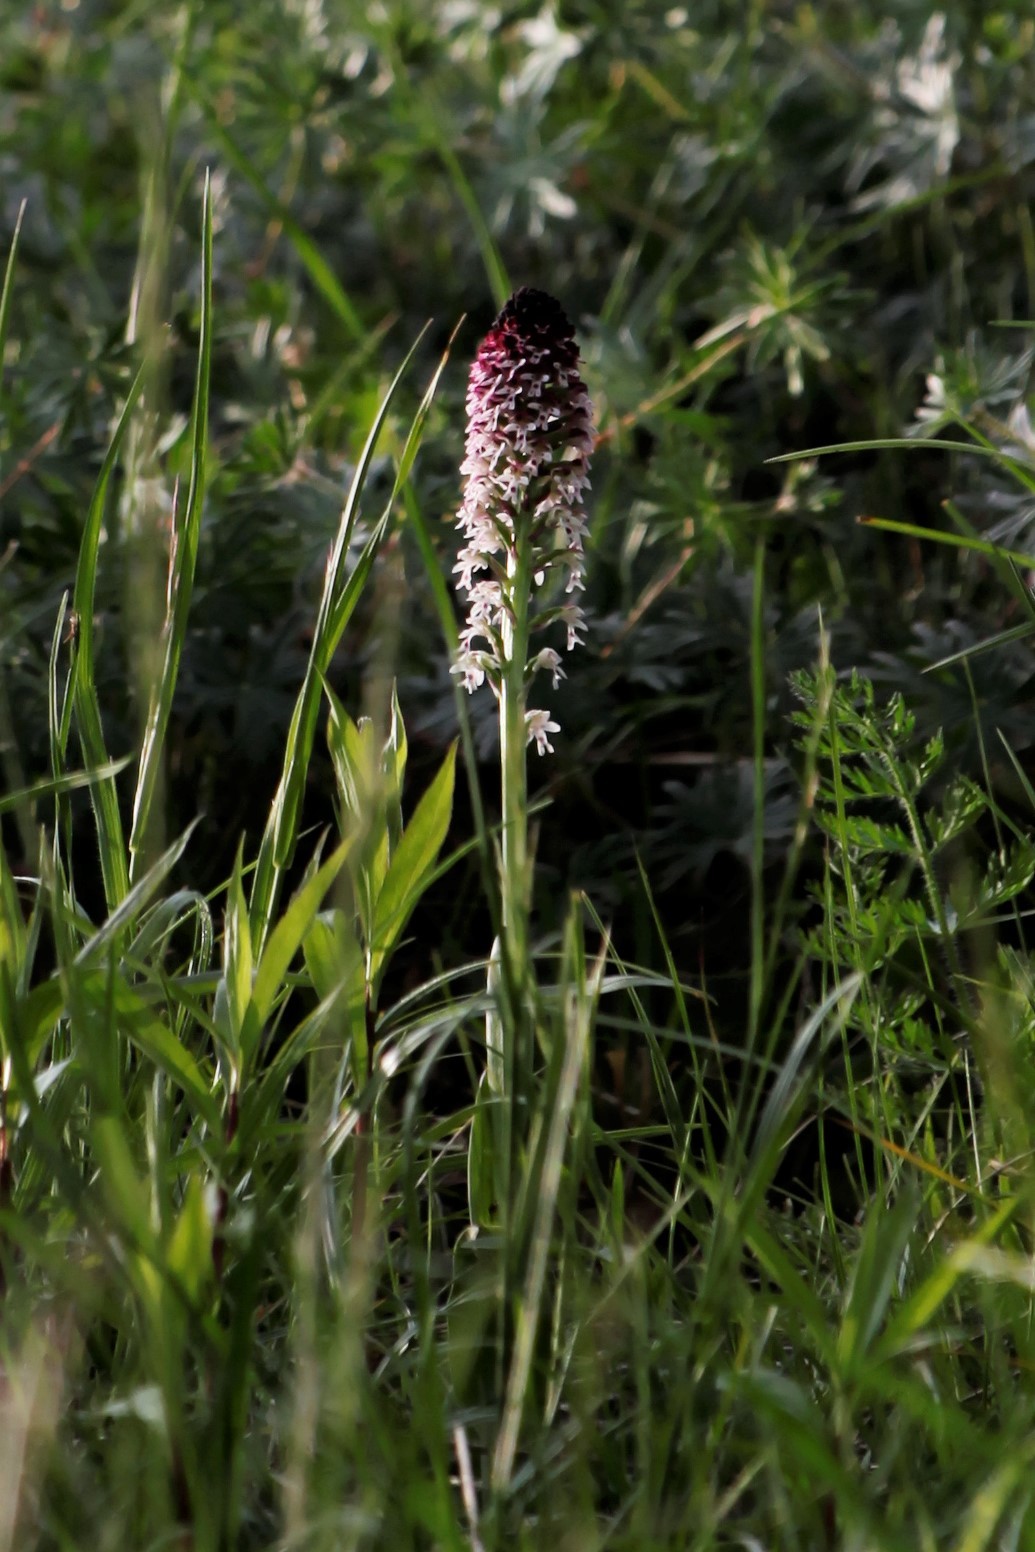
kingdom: Plantae
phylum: Tracheophyta
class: Liliopsida
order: Asparagales
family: Orchidaceae
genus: Neotinea
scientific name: Neotinea ustulata
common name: Burnt orchid
